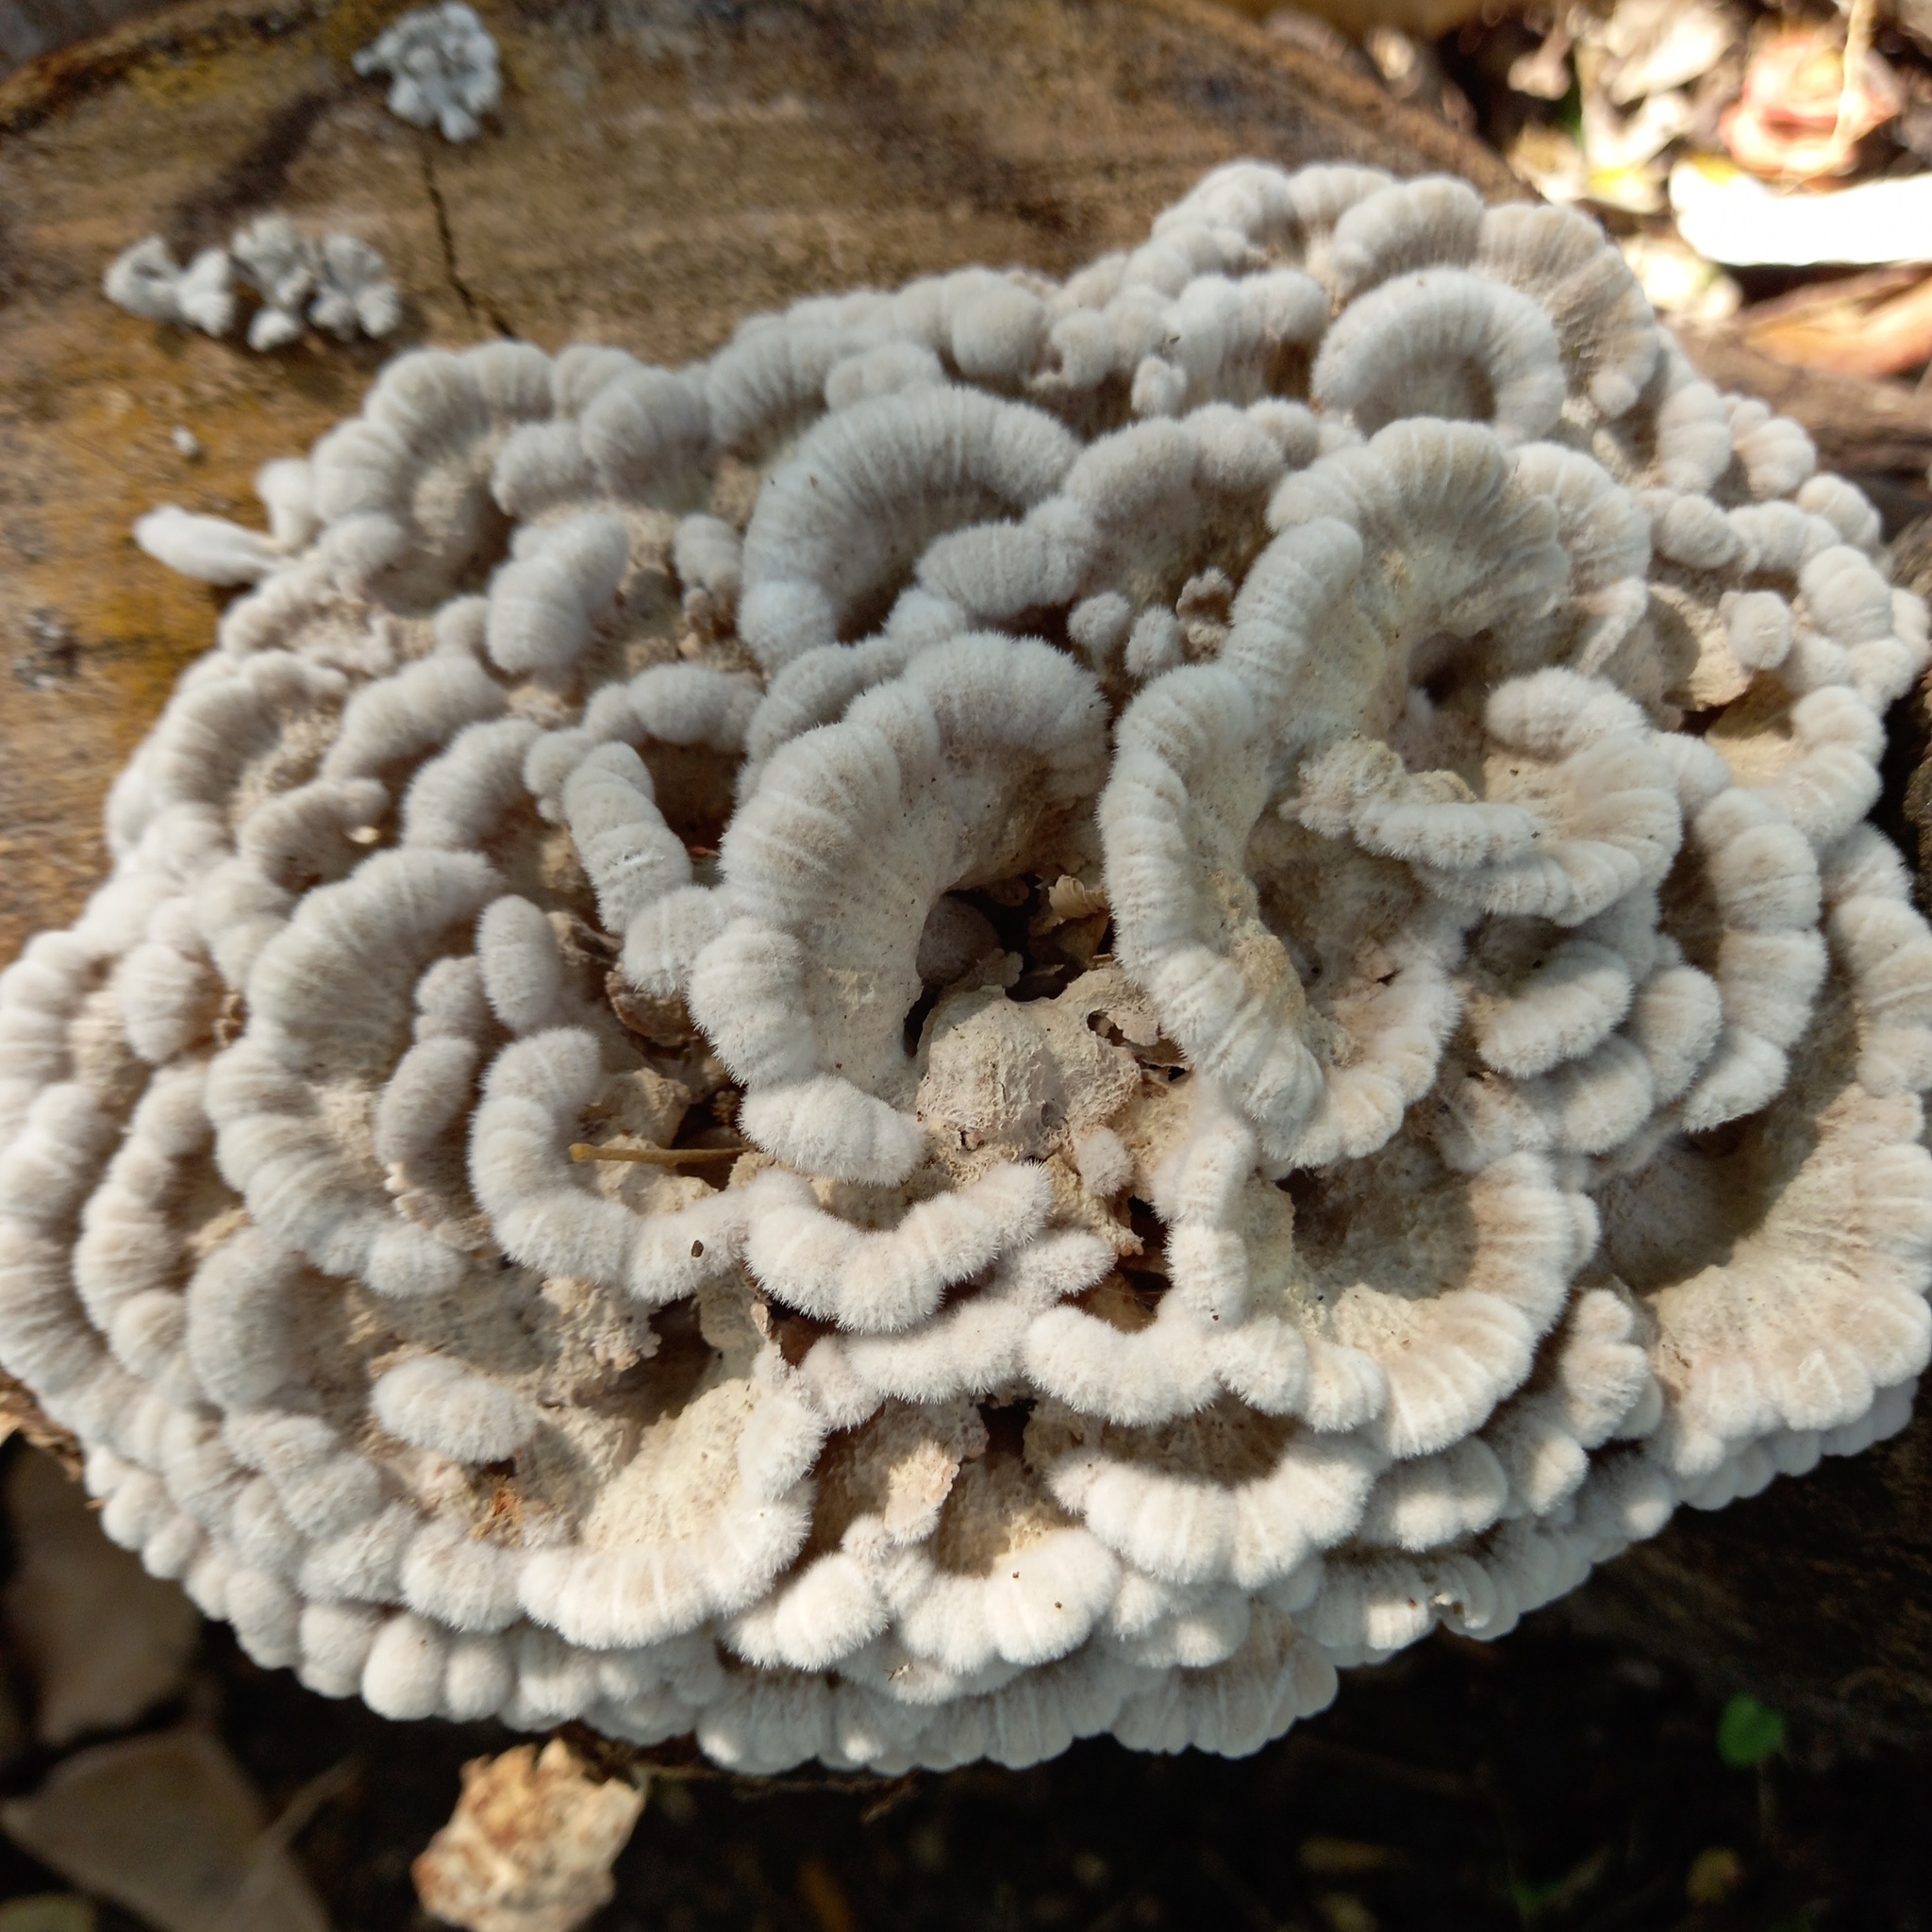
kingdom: Fungi
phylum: Basidiomycota
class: Agaricomycetes
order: Agaricales
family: Schizophyllaceae
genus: Schizophyllum
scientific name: Schizophyllum commune
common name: Common porecrust
